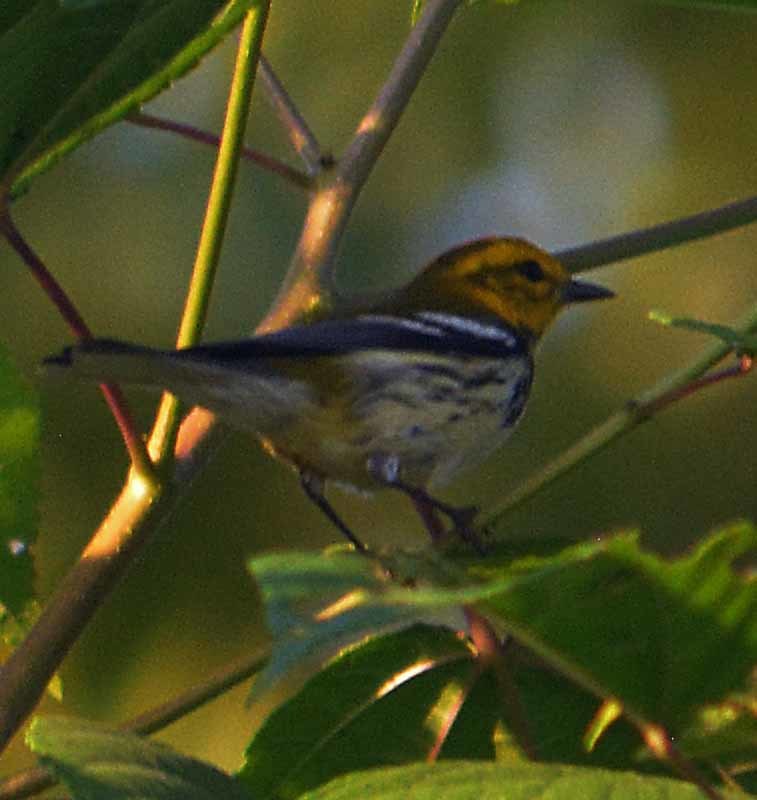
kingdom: Animalia
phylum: Chordata
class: Aves
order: Passeriformes
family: Parulidae
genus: Setophaga
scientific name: Setophaga virens
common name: Black-throated green warbler
